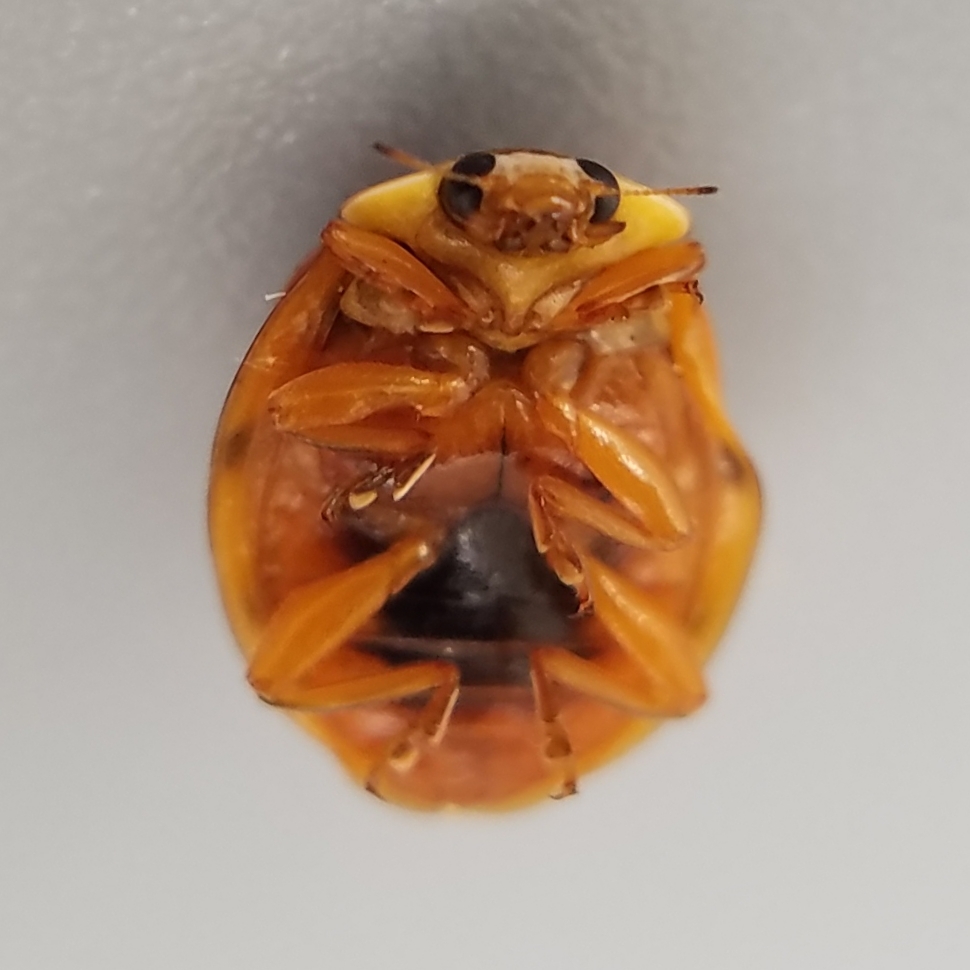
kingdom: Animalia
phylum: Arthropoda
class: Insecta
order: Coleoptera
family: Coccinellidae
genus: Harmonia
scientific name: Harmonia axyridis
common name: Harlequin ladybird
